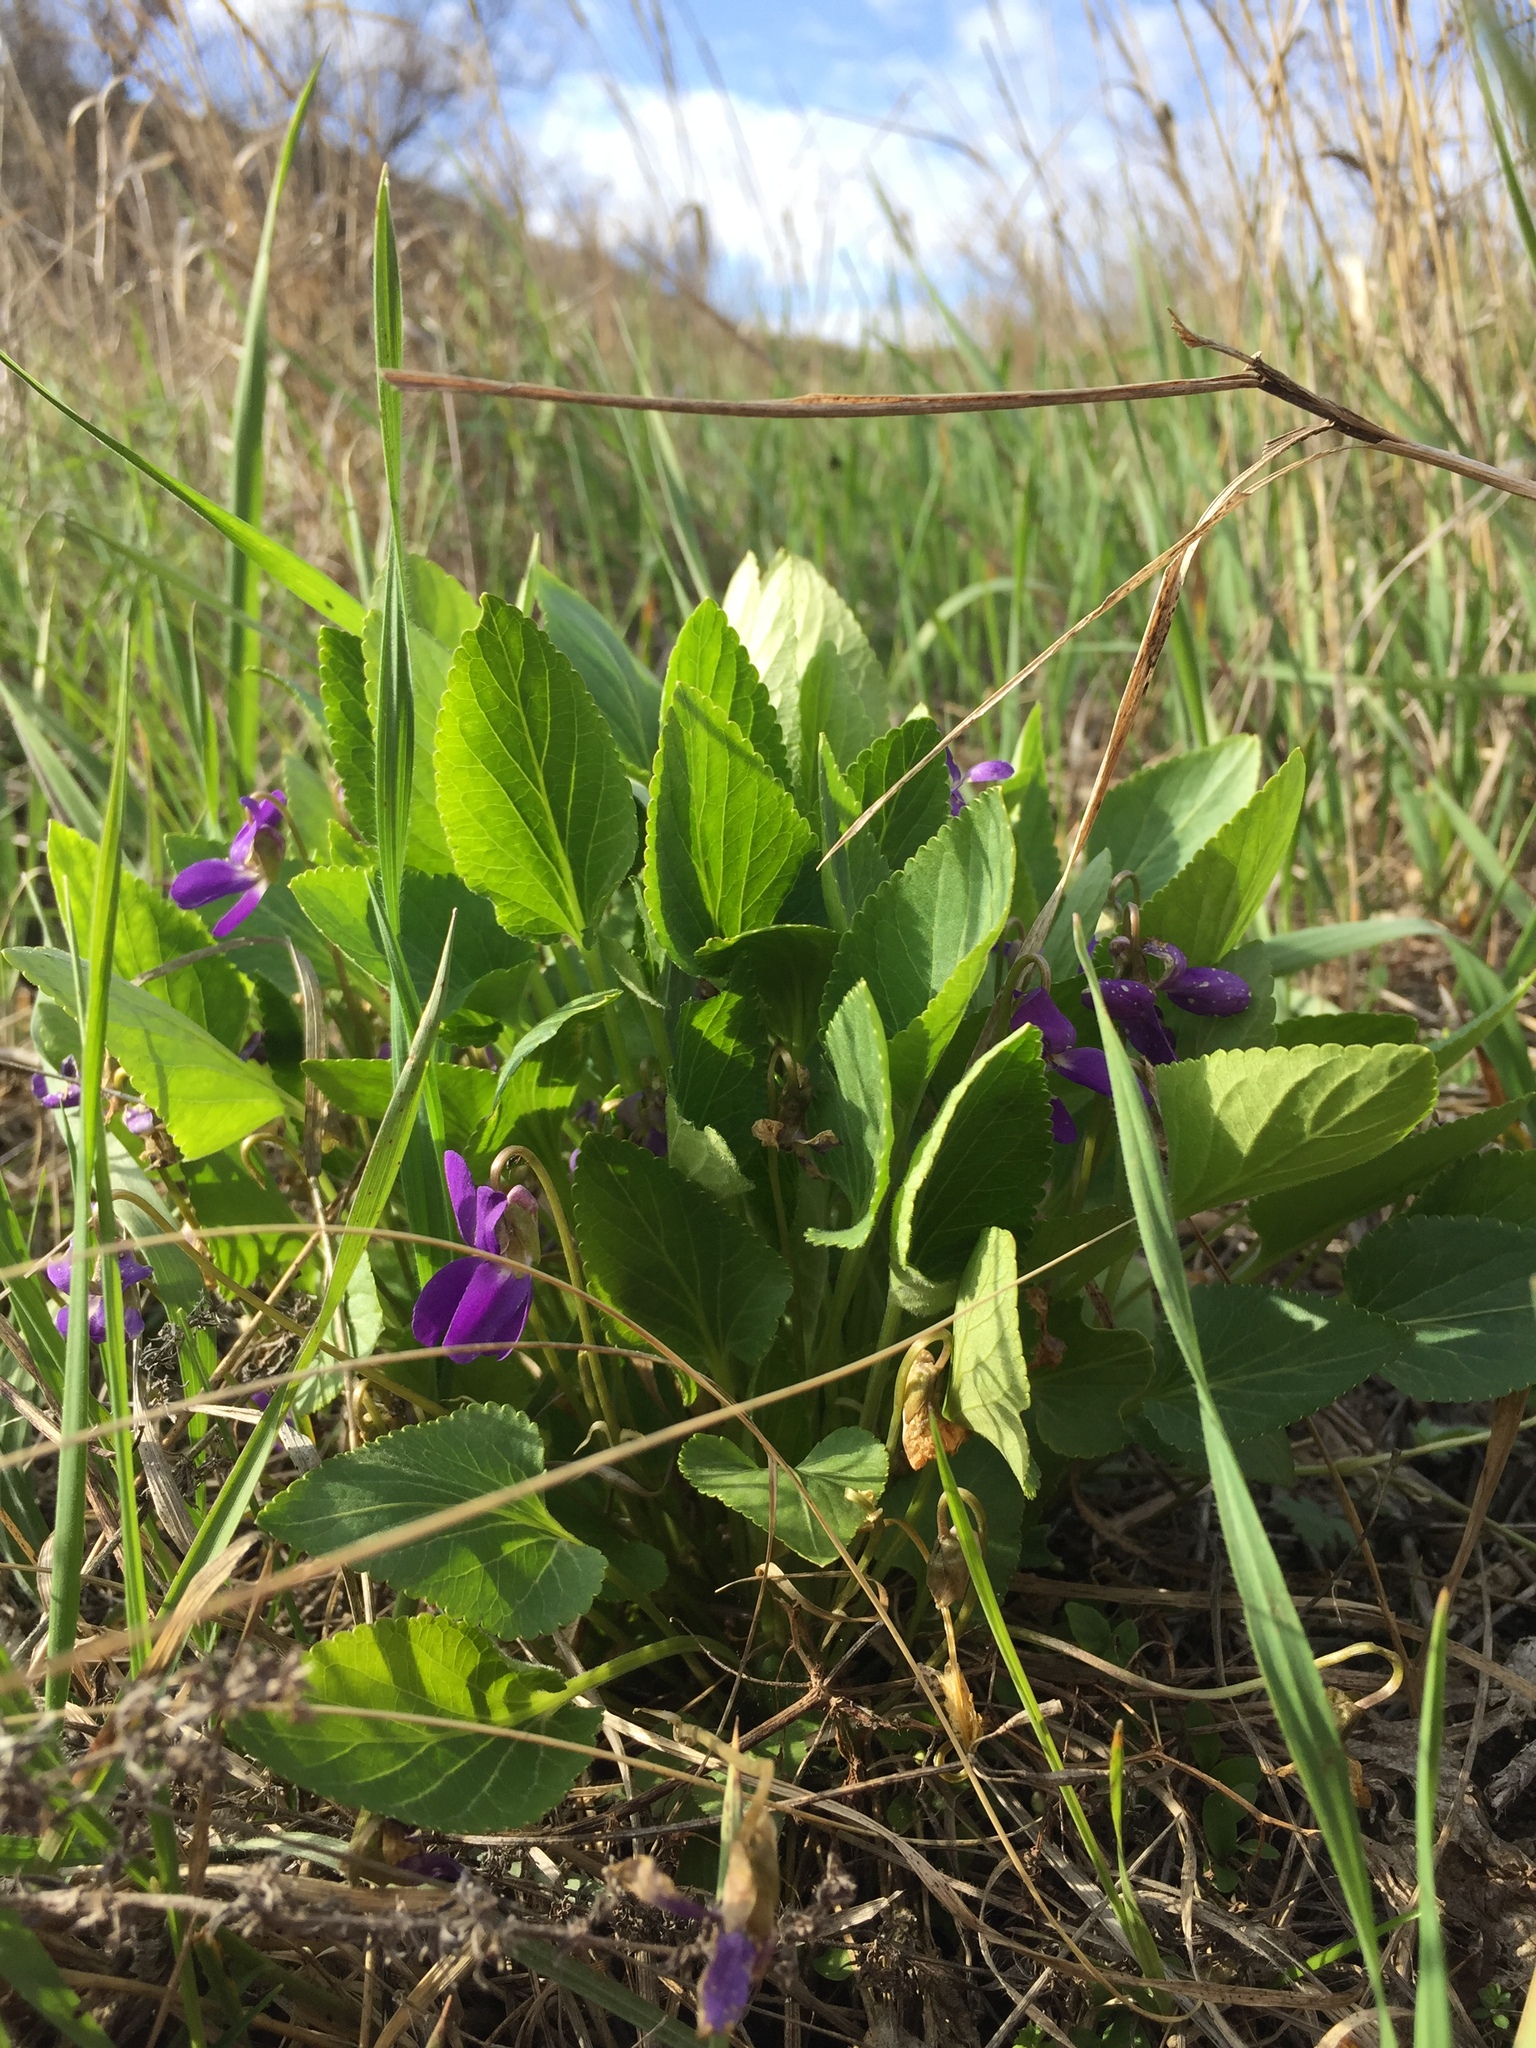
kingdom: Plantae
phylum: Tracheophyta
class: Magnoliopsida
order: Malpighiales
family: Violaceae
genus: Viola
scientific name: Viola ambigua
